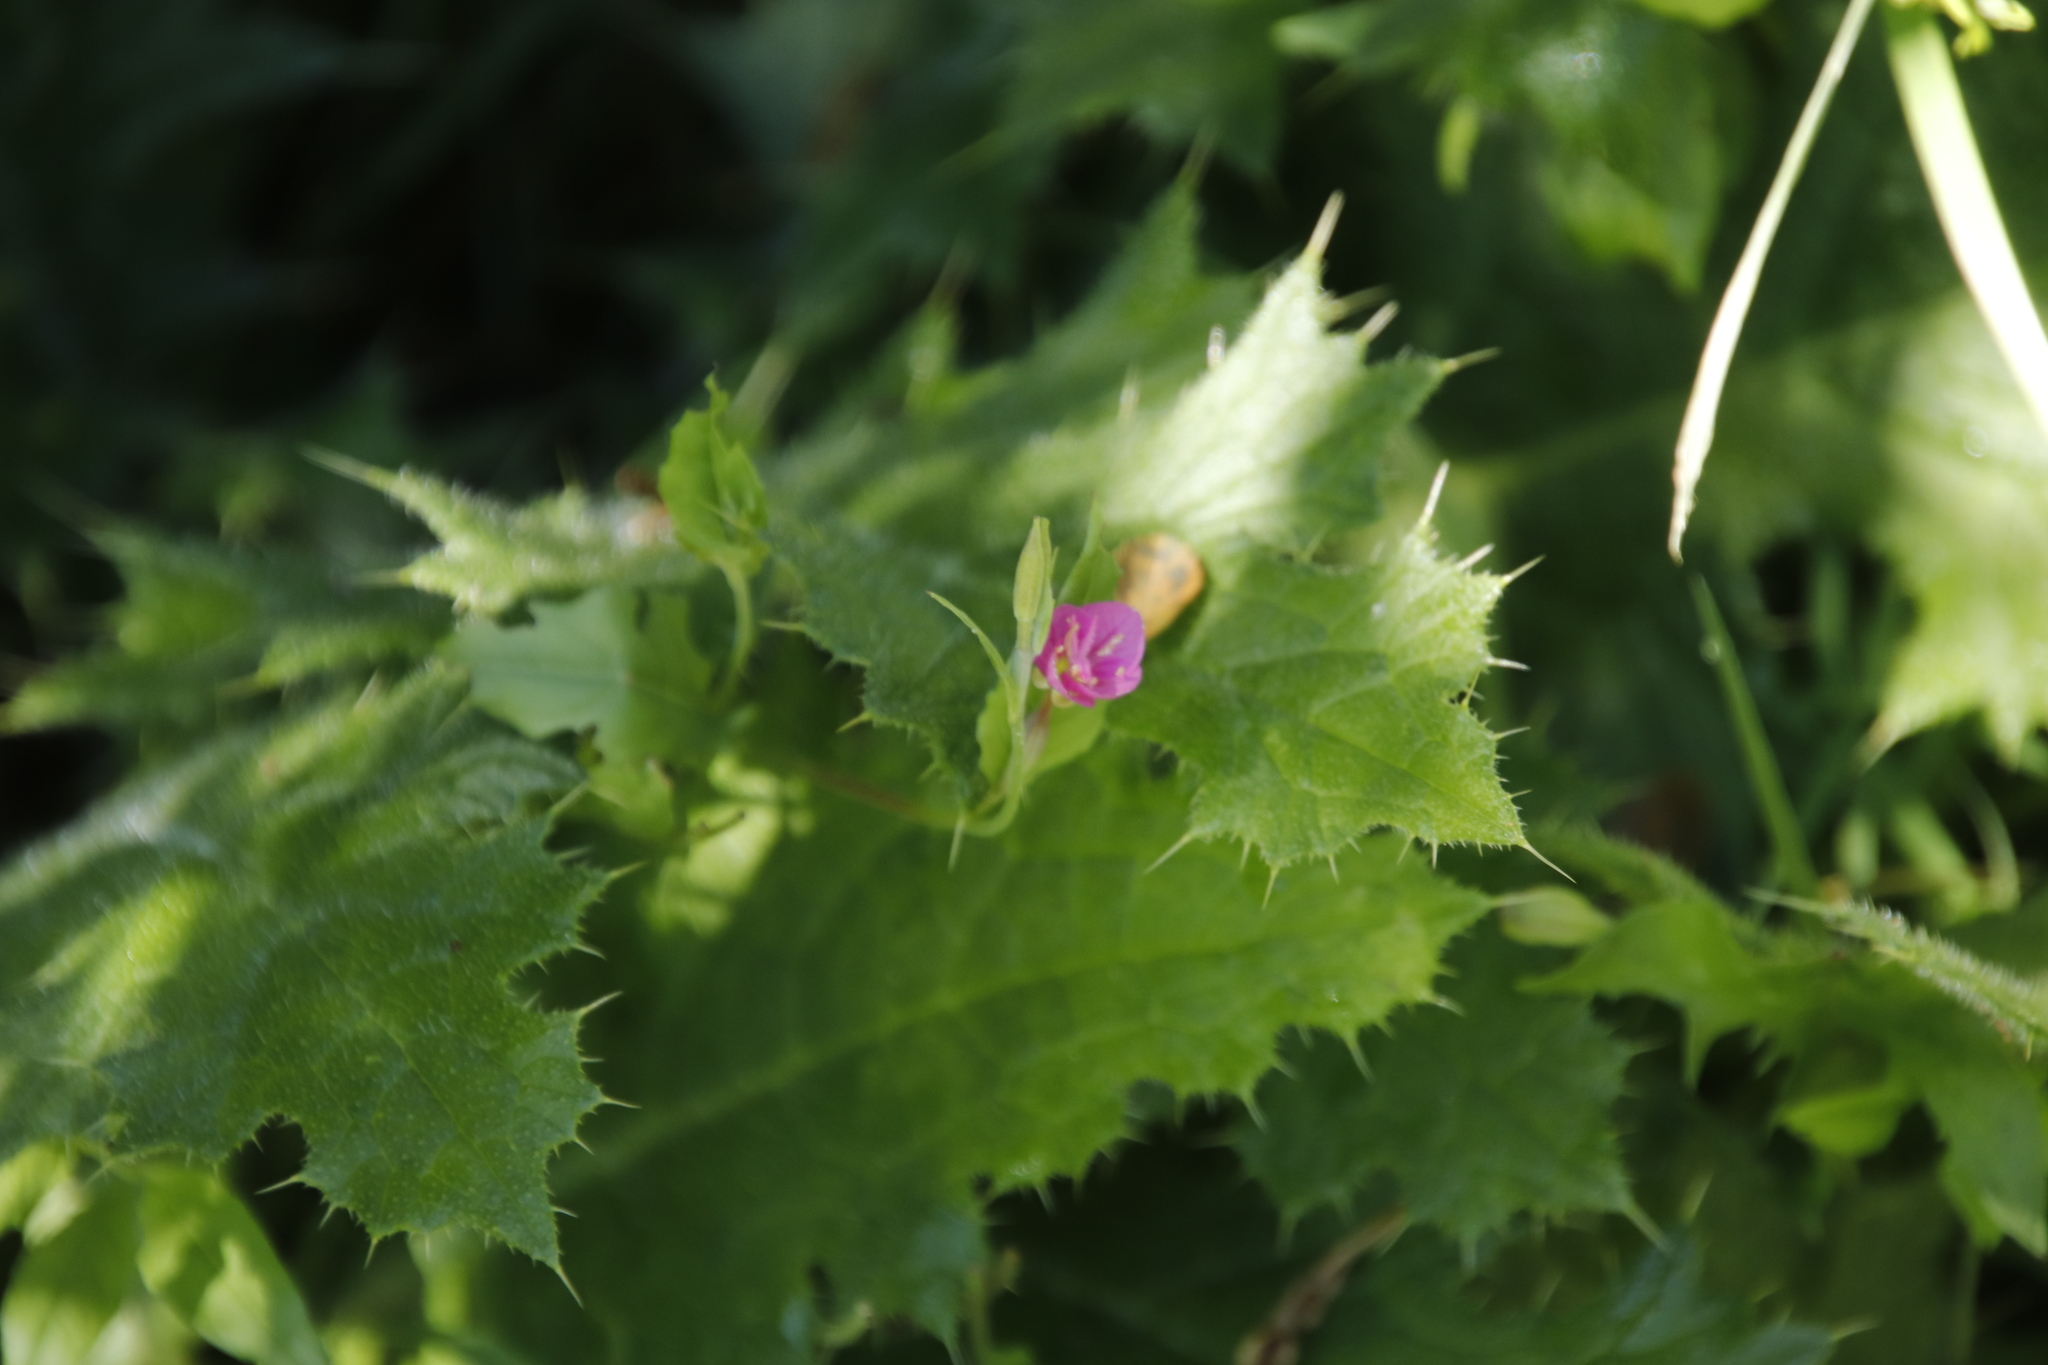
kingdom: Plantae
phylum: Tracheophyta
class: Magnoliopsida
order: Myrtales
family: Onagraceae
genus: Oenothera
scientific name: Oenothera rosea
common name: Rosy evening-primrose
